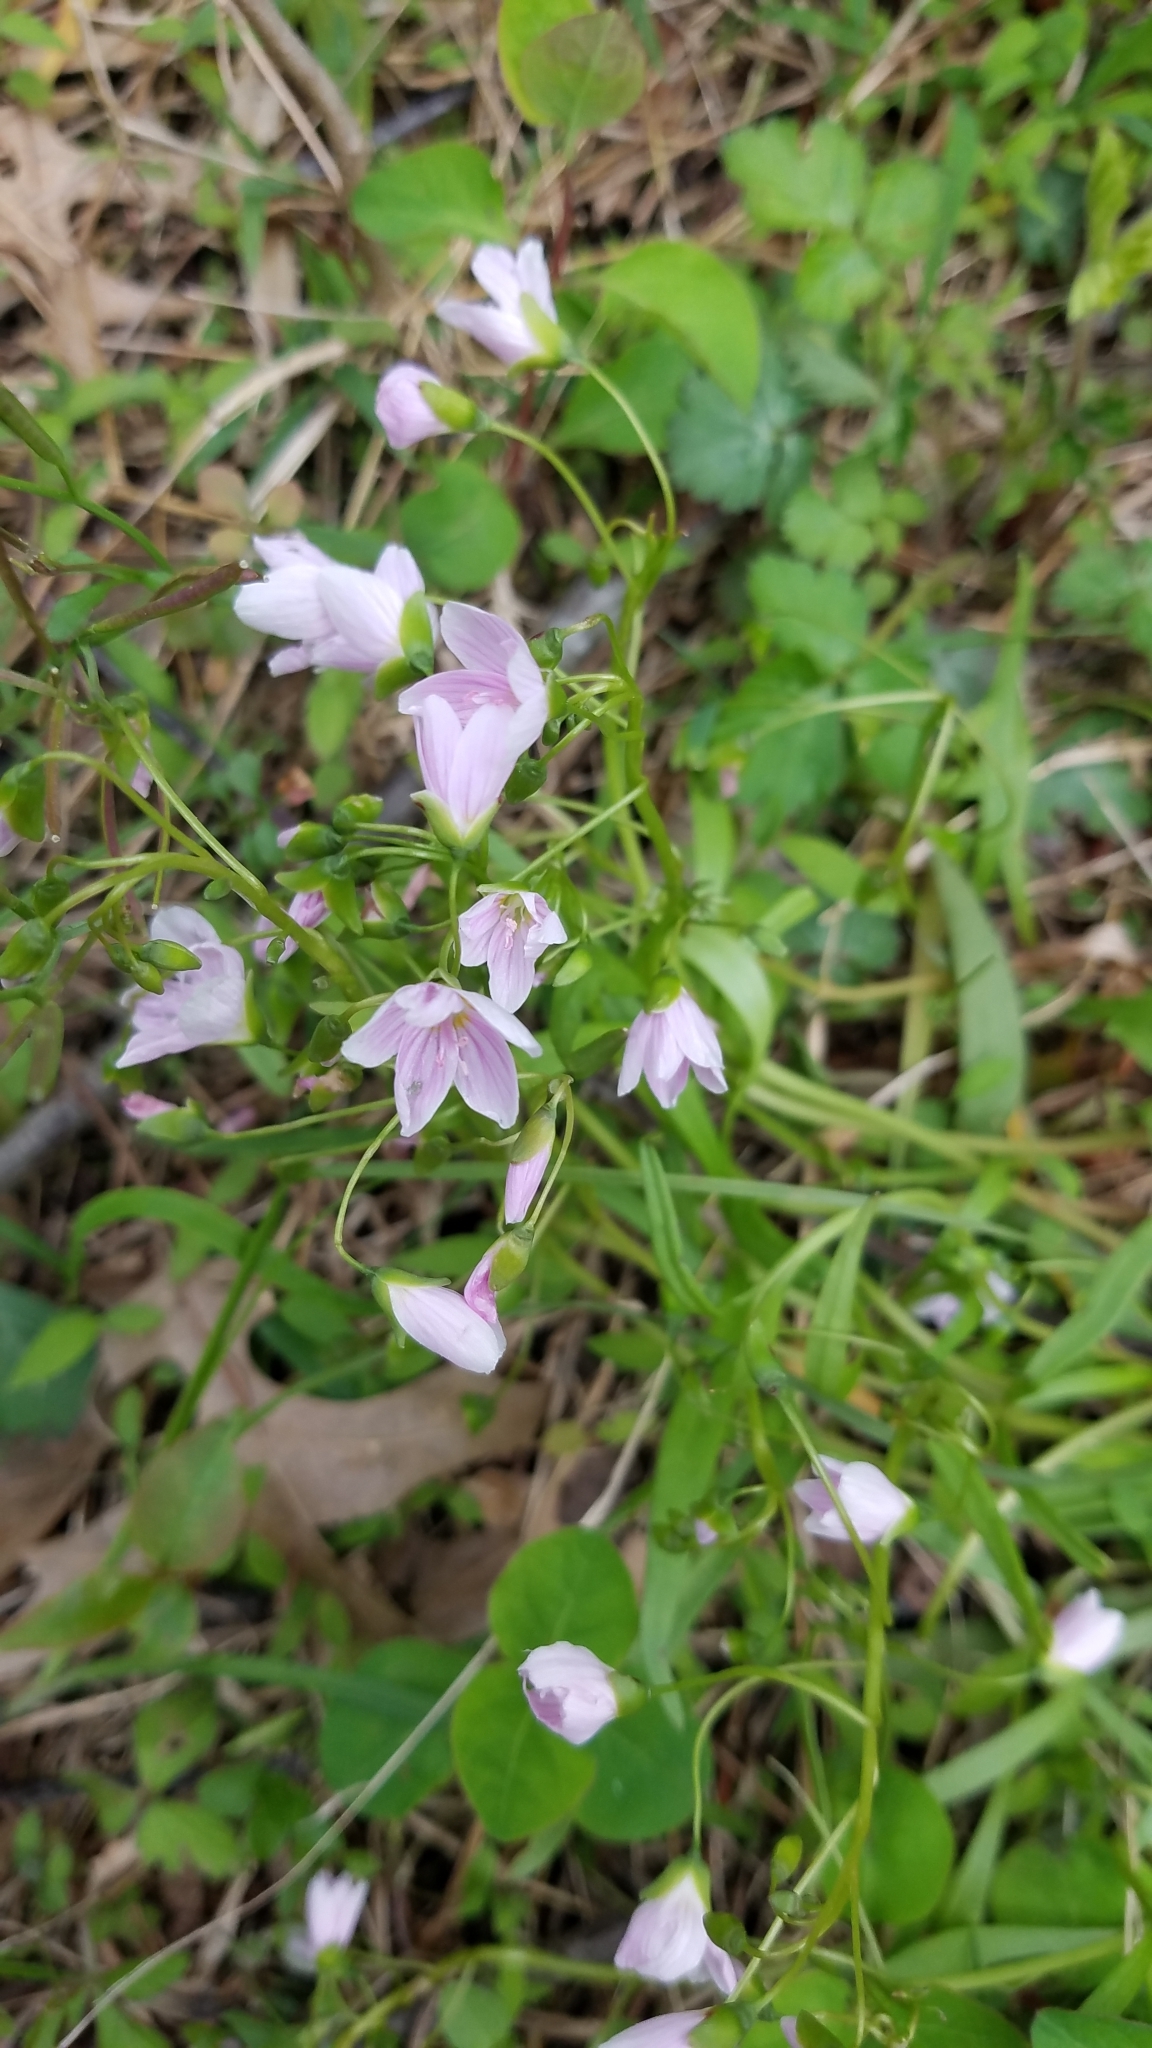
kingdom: Plantae
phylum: Tracheophyta
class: Magnoliopsida
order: Caryophyllales
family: Montiaceae
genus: Claytonia
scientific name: Claytonia virginica
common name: Virginia springbeauty
